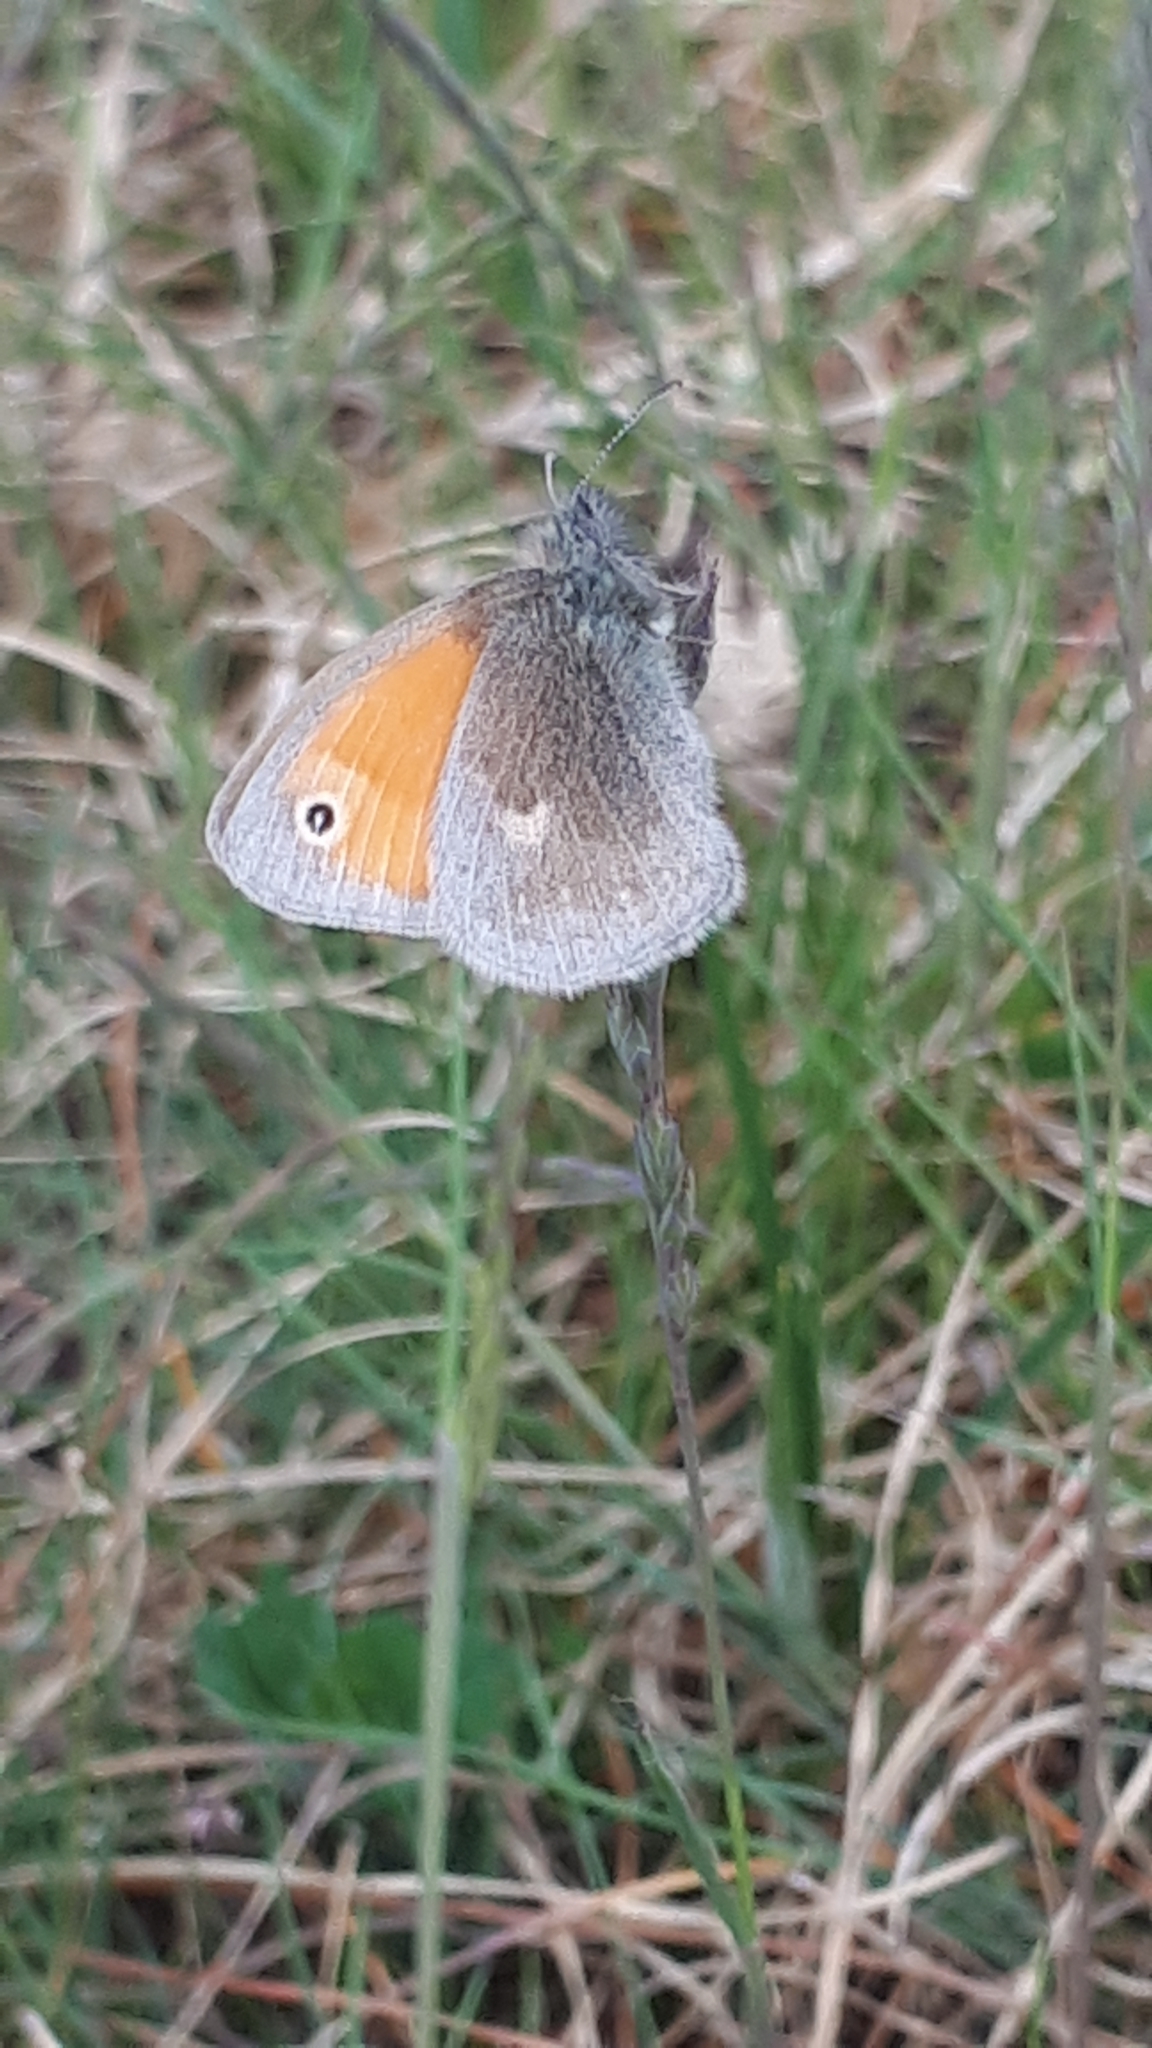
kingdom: Animalia
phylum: Arthropoda
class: Insecta
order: Lepidoptera
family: Nymphalidae
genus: Coenonympha
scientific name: Coenonympha pamphilus
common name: Small heath
